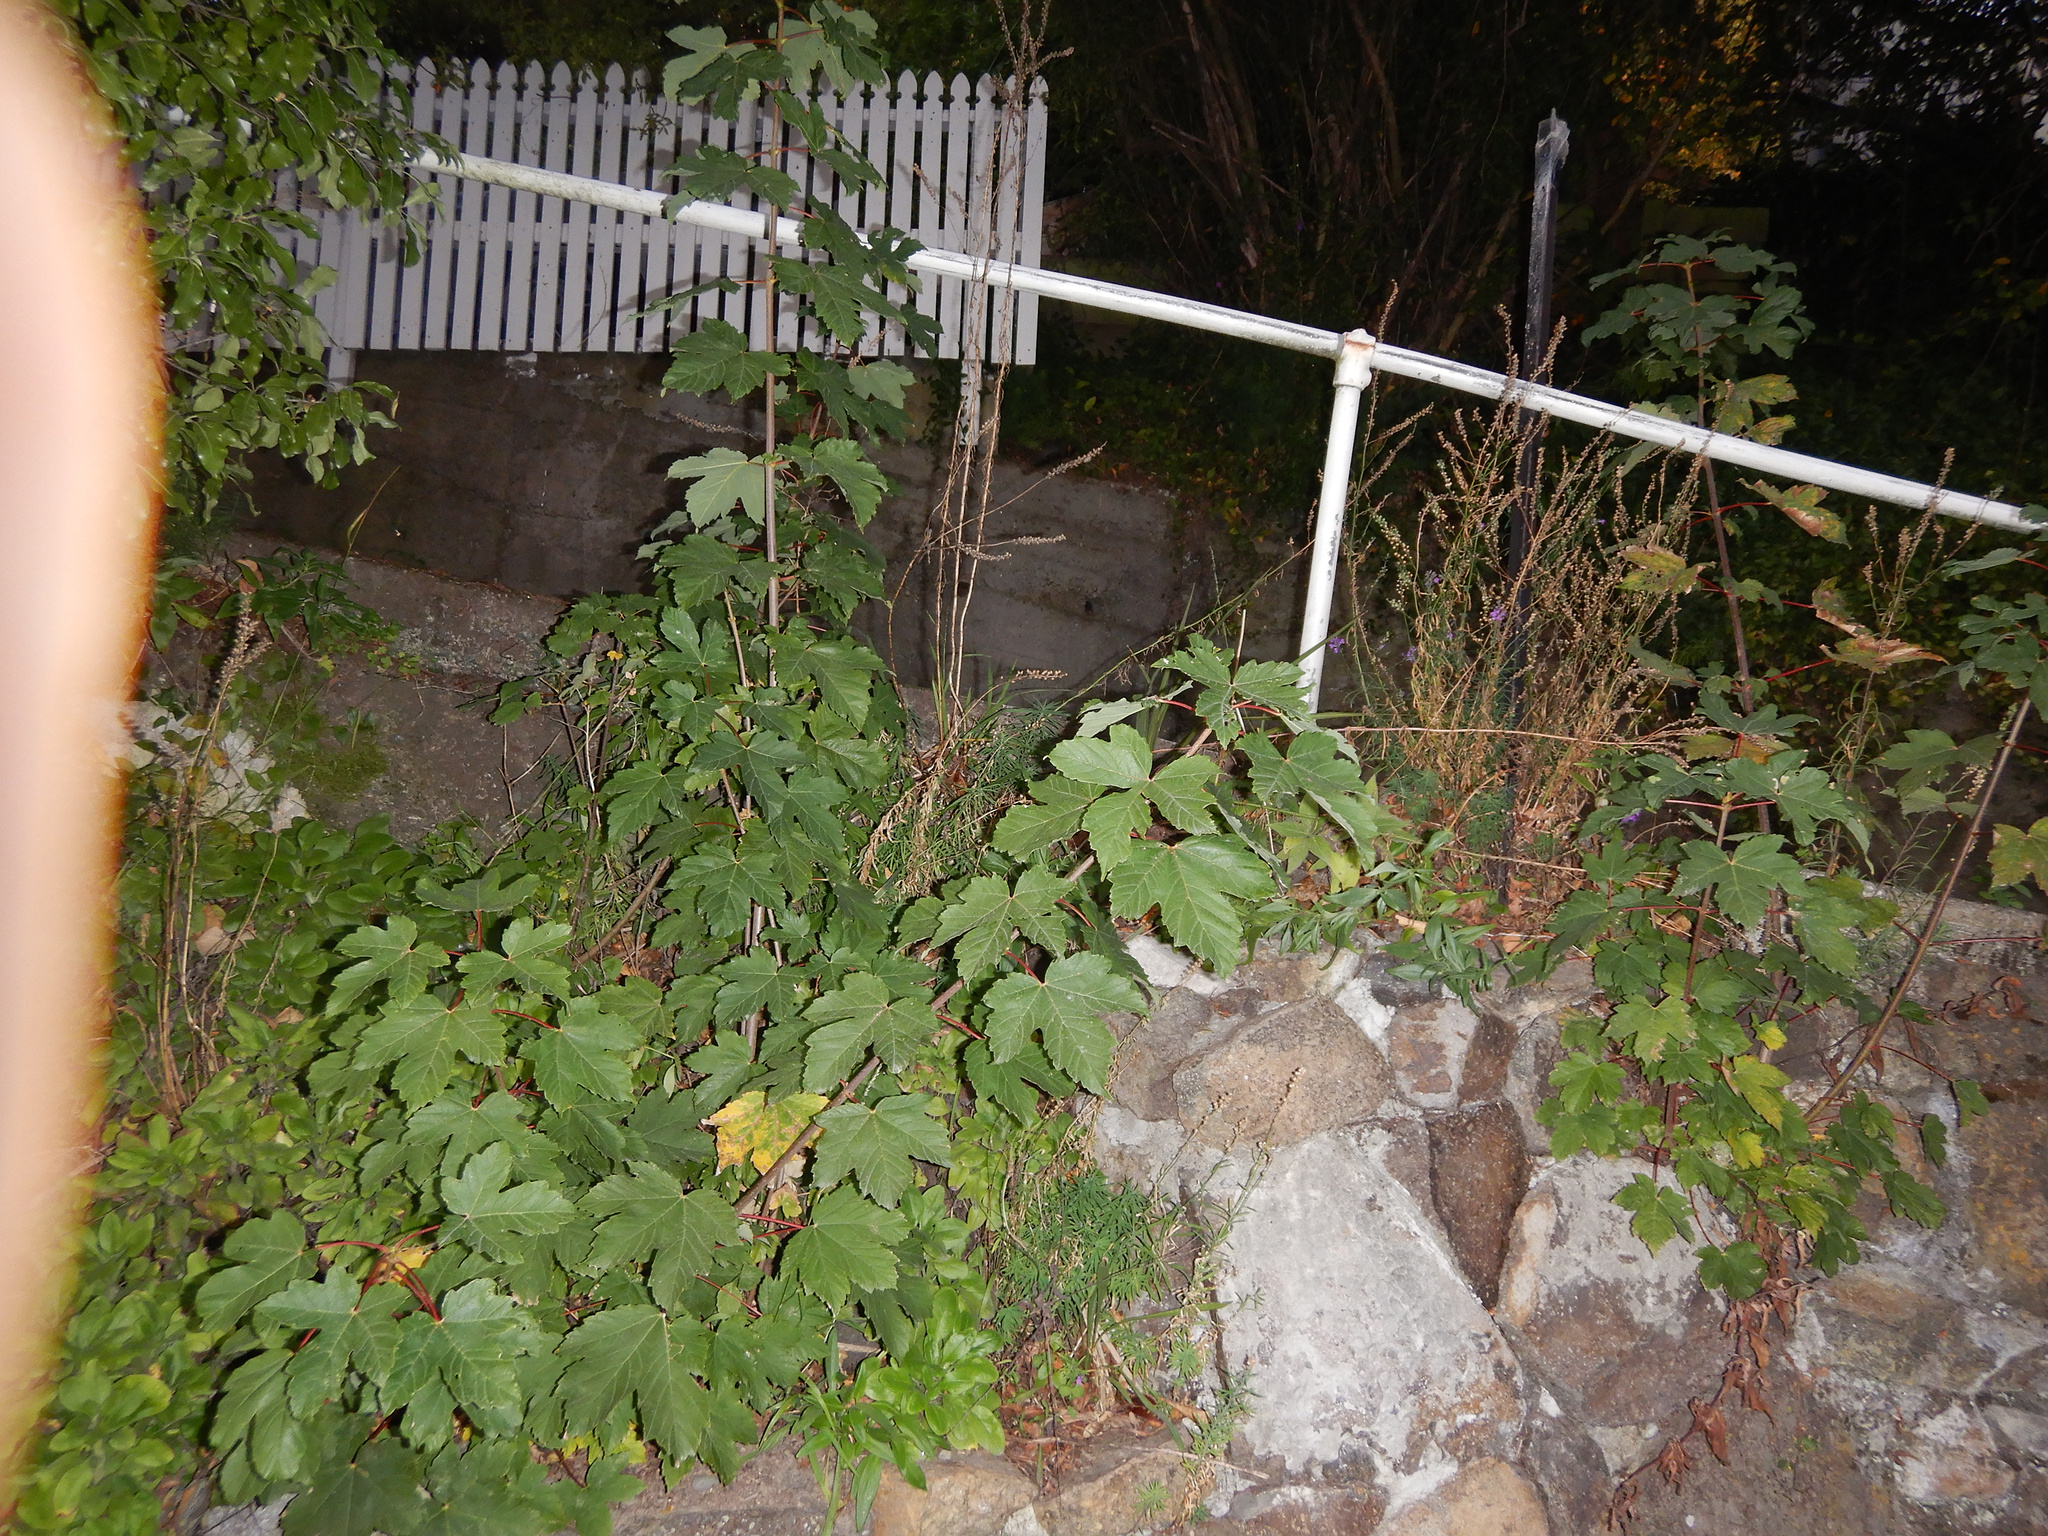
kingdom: Plantae
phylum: Tracheophyta
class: Magnoliopsida
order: Sapindales
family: Sapindaceae
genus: Acer
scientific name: Acer pseudoplatanus
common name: Sycamore
